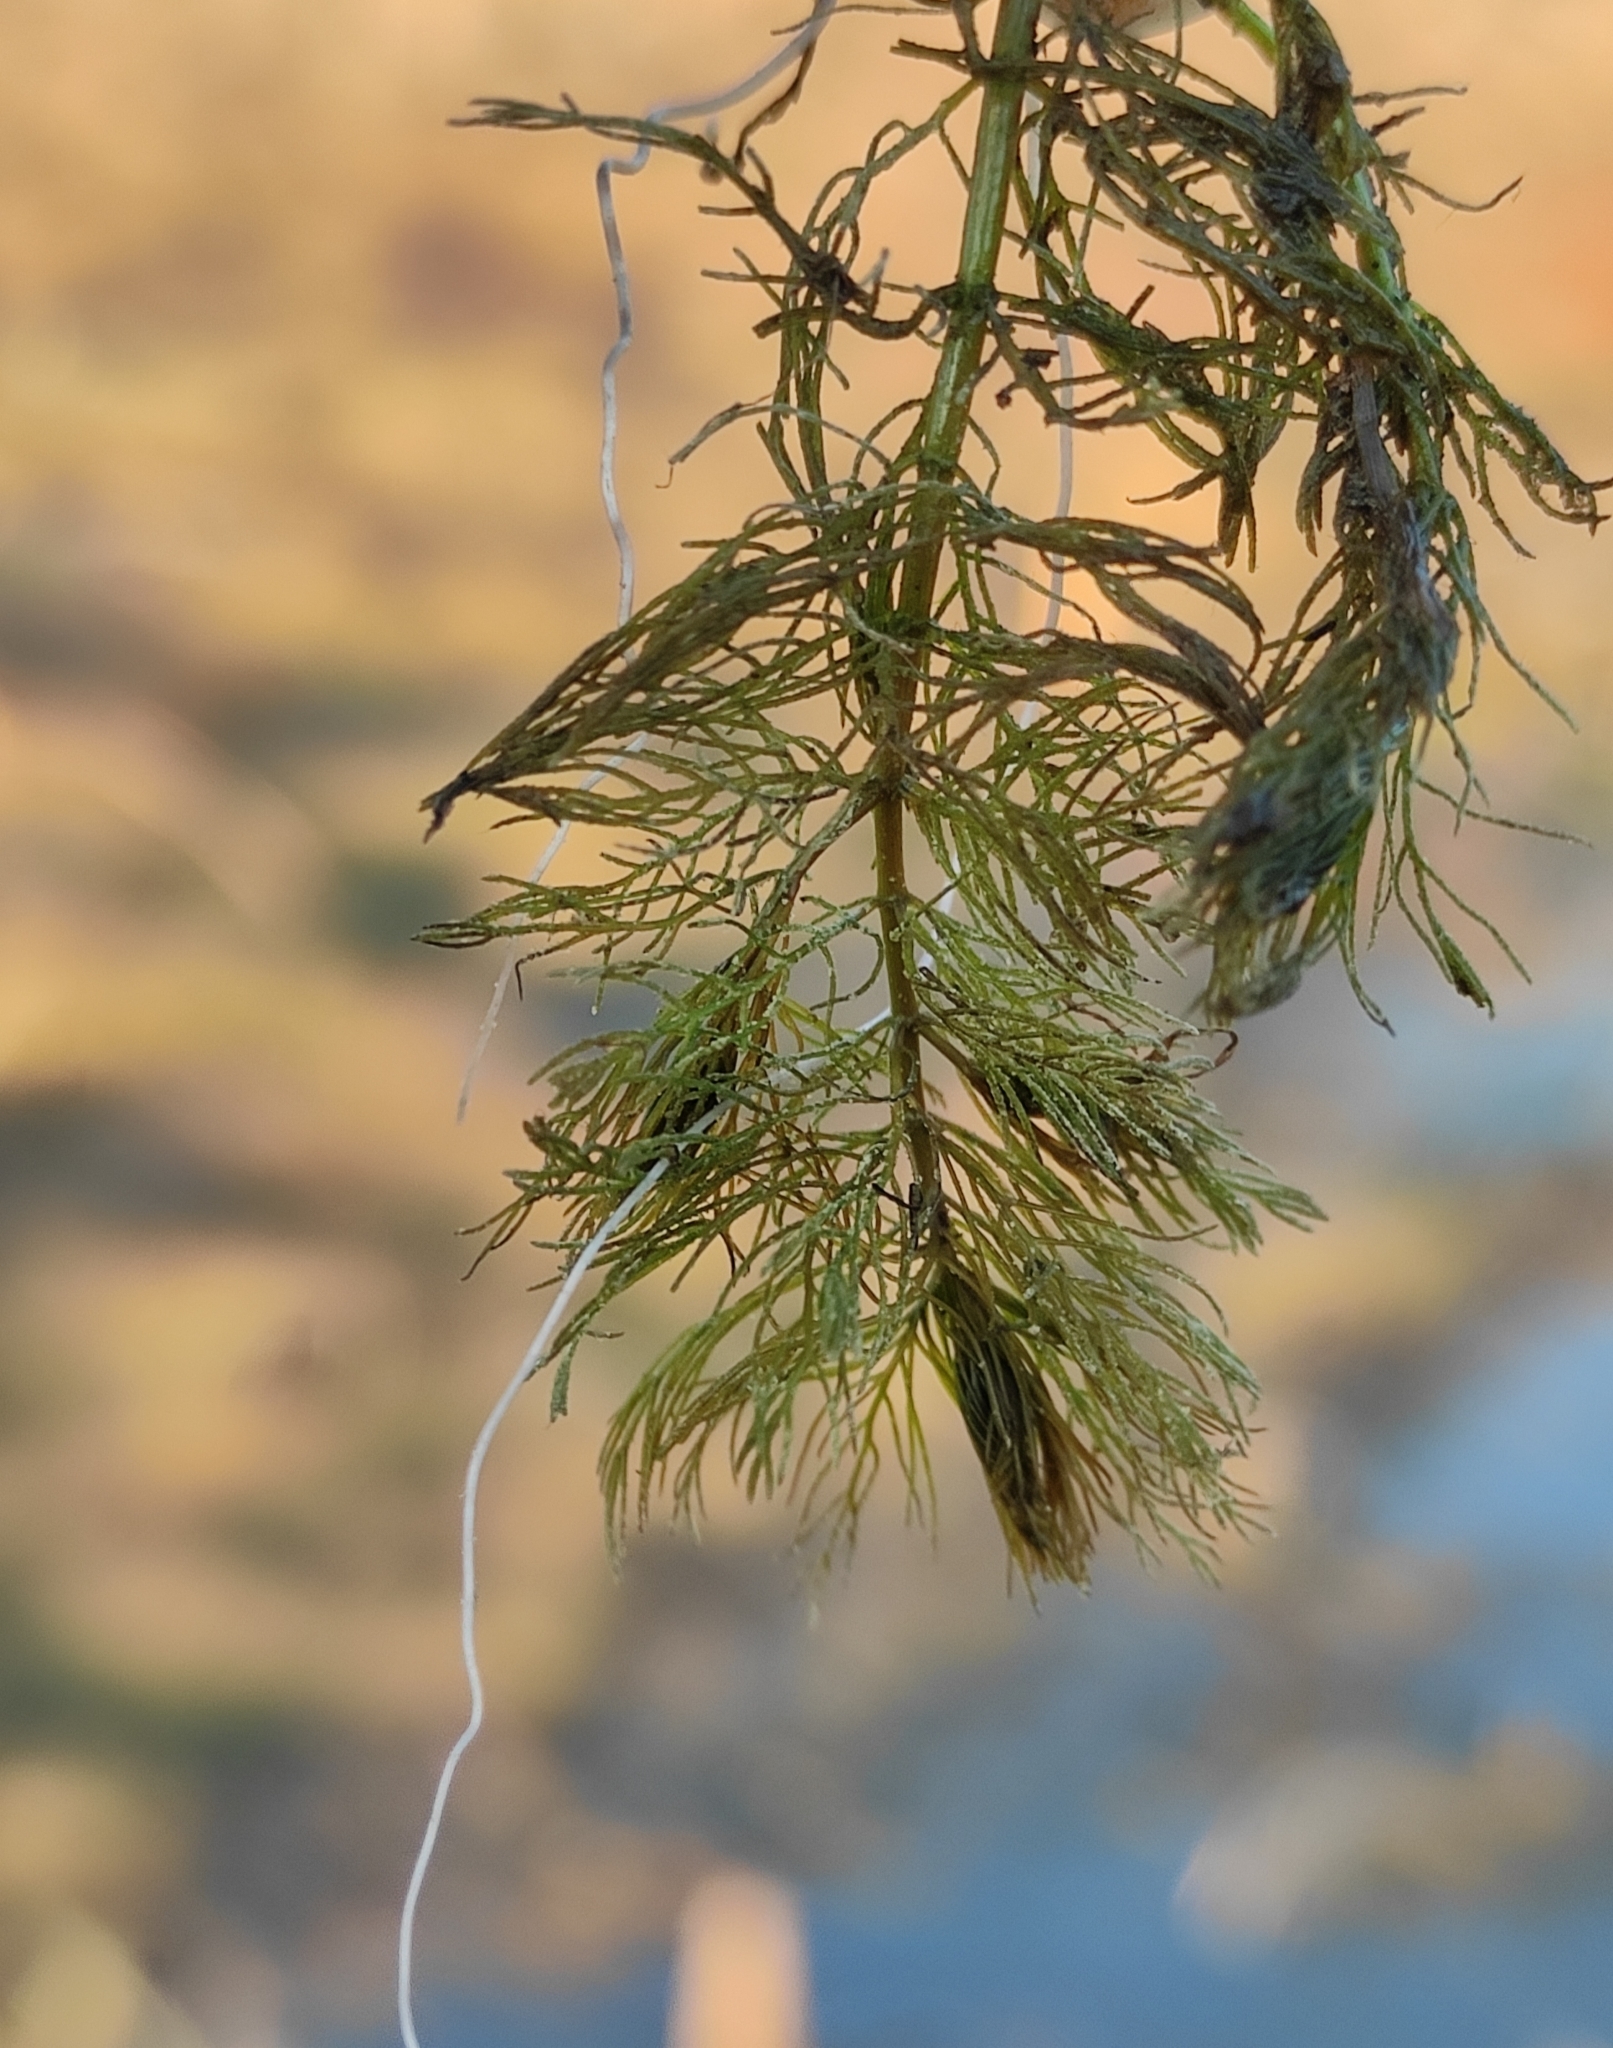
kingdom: Plantae
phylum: Tracheophyta
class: Magnoliopsida
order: Saxifragales
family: Haloragaceae
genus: Myriophyllum
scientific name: Myriophyllum sibiricum
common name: Siberian water-milfoil
